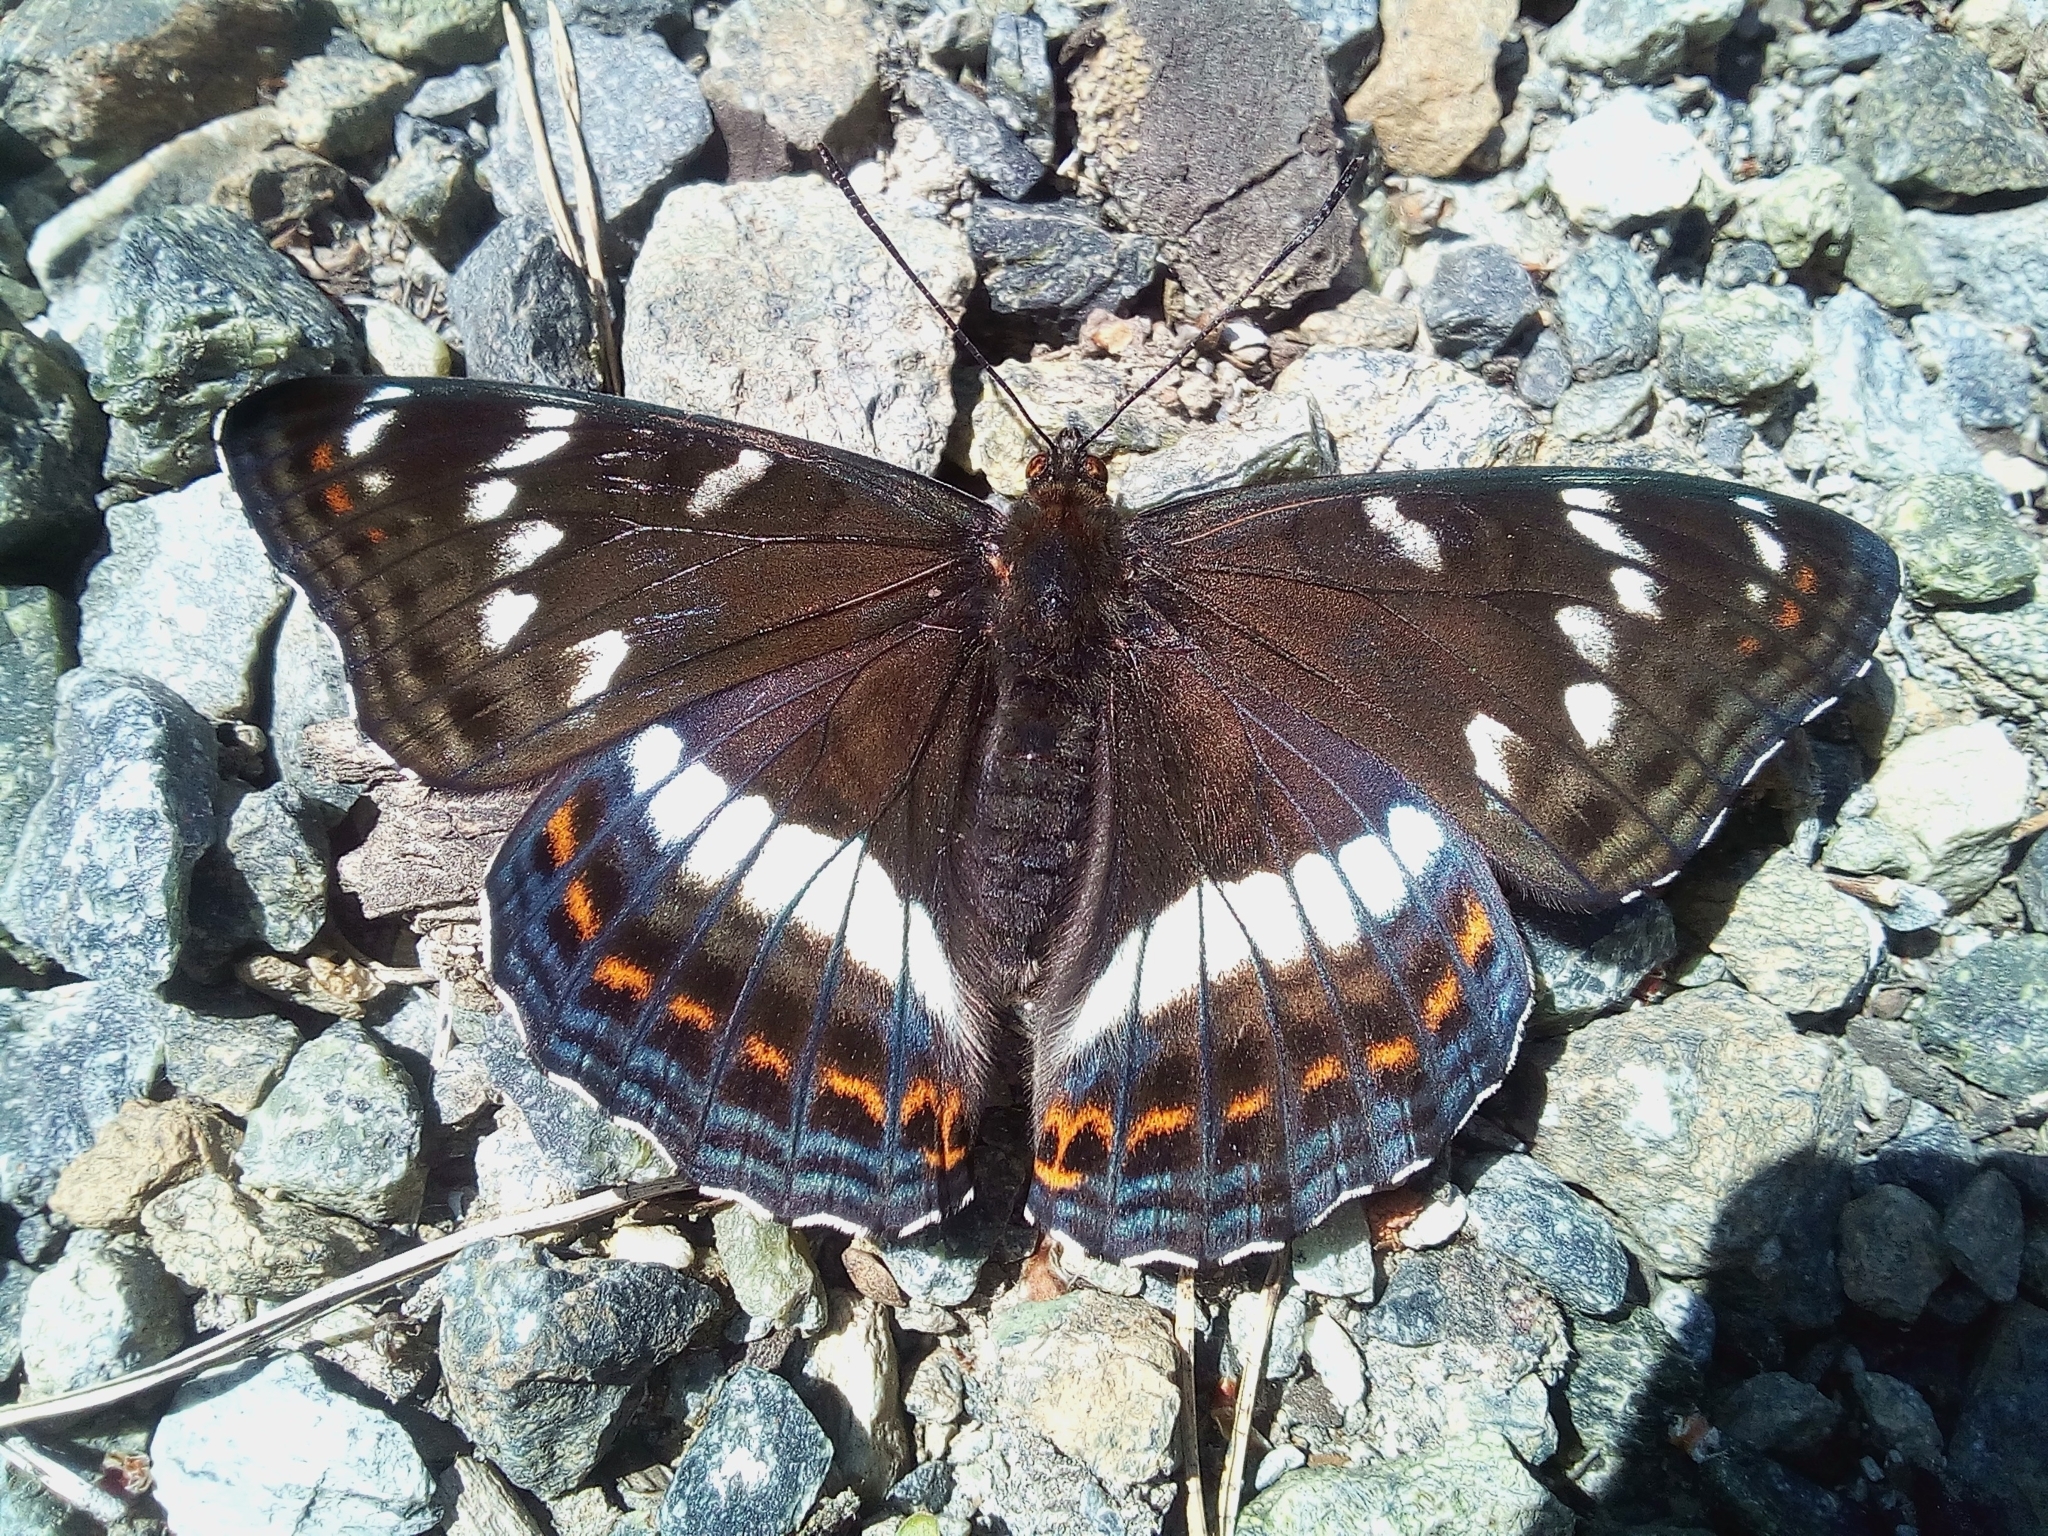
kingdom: Animalia
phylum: Arthropoda
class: Insecta
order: Lepidoptera
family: Nymphalidae
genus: Limenitis
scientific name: Limenitis populi
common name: Poplar admiral
